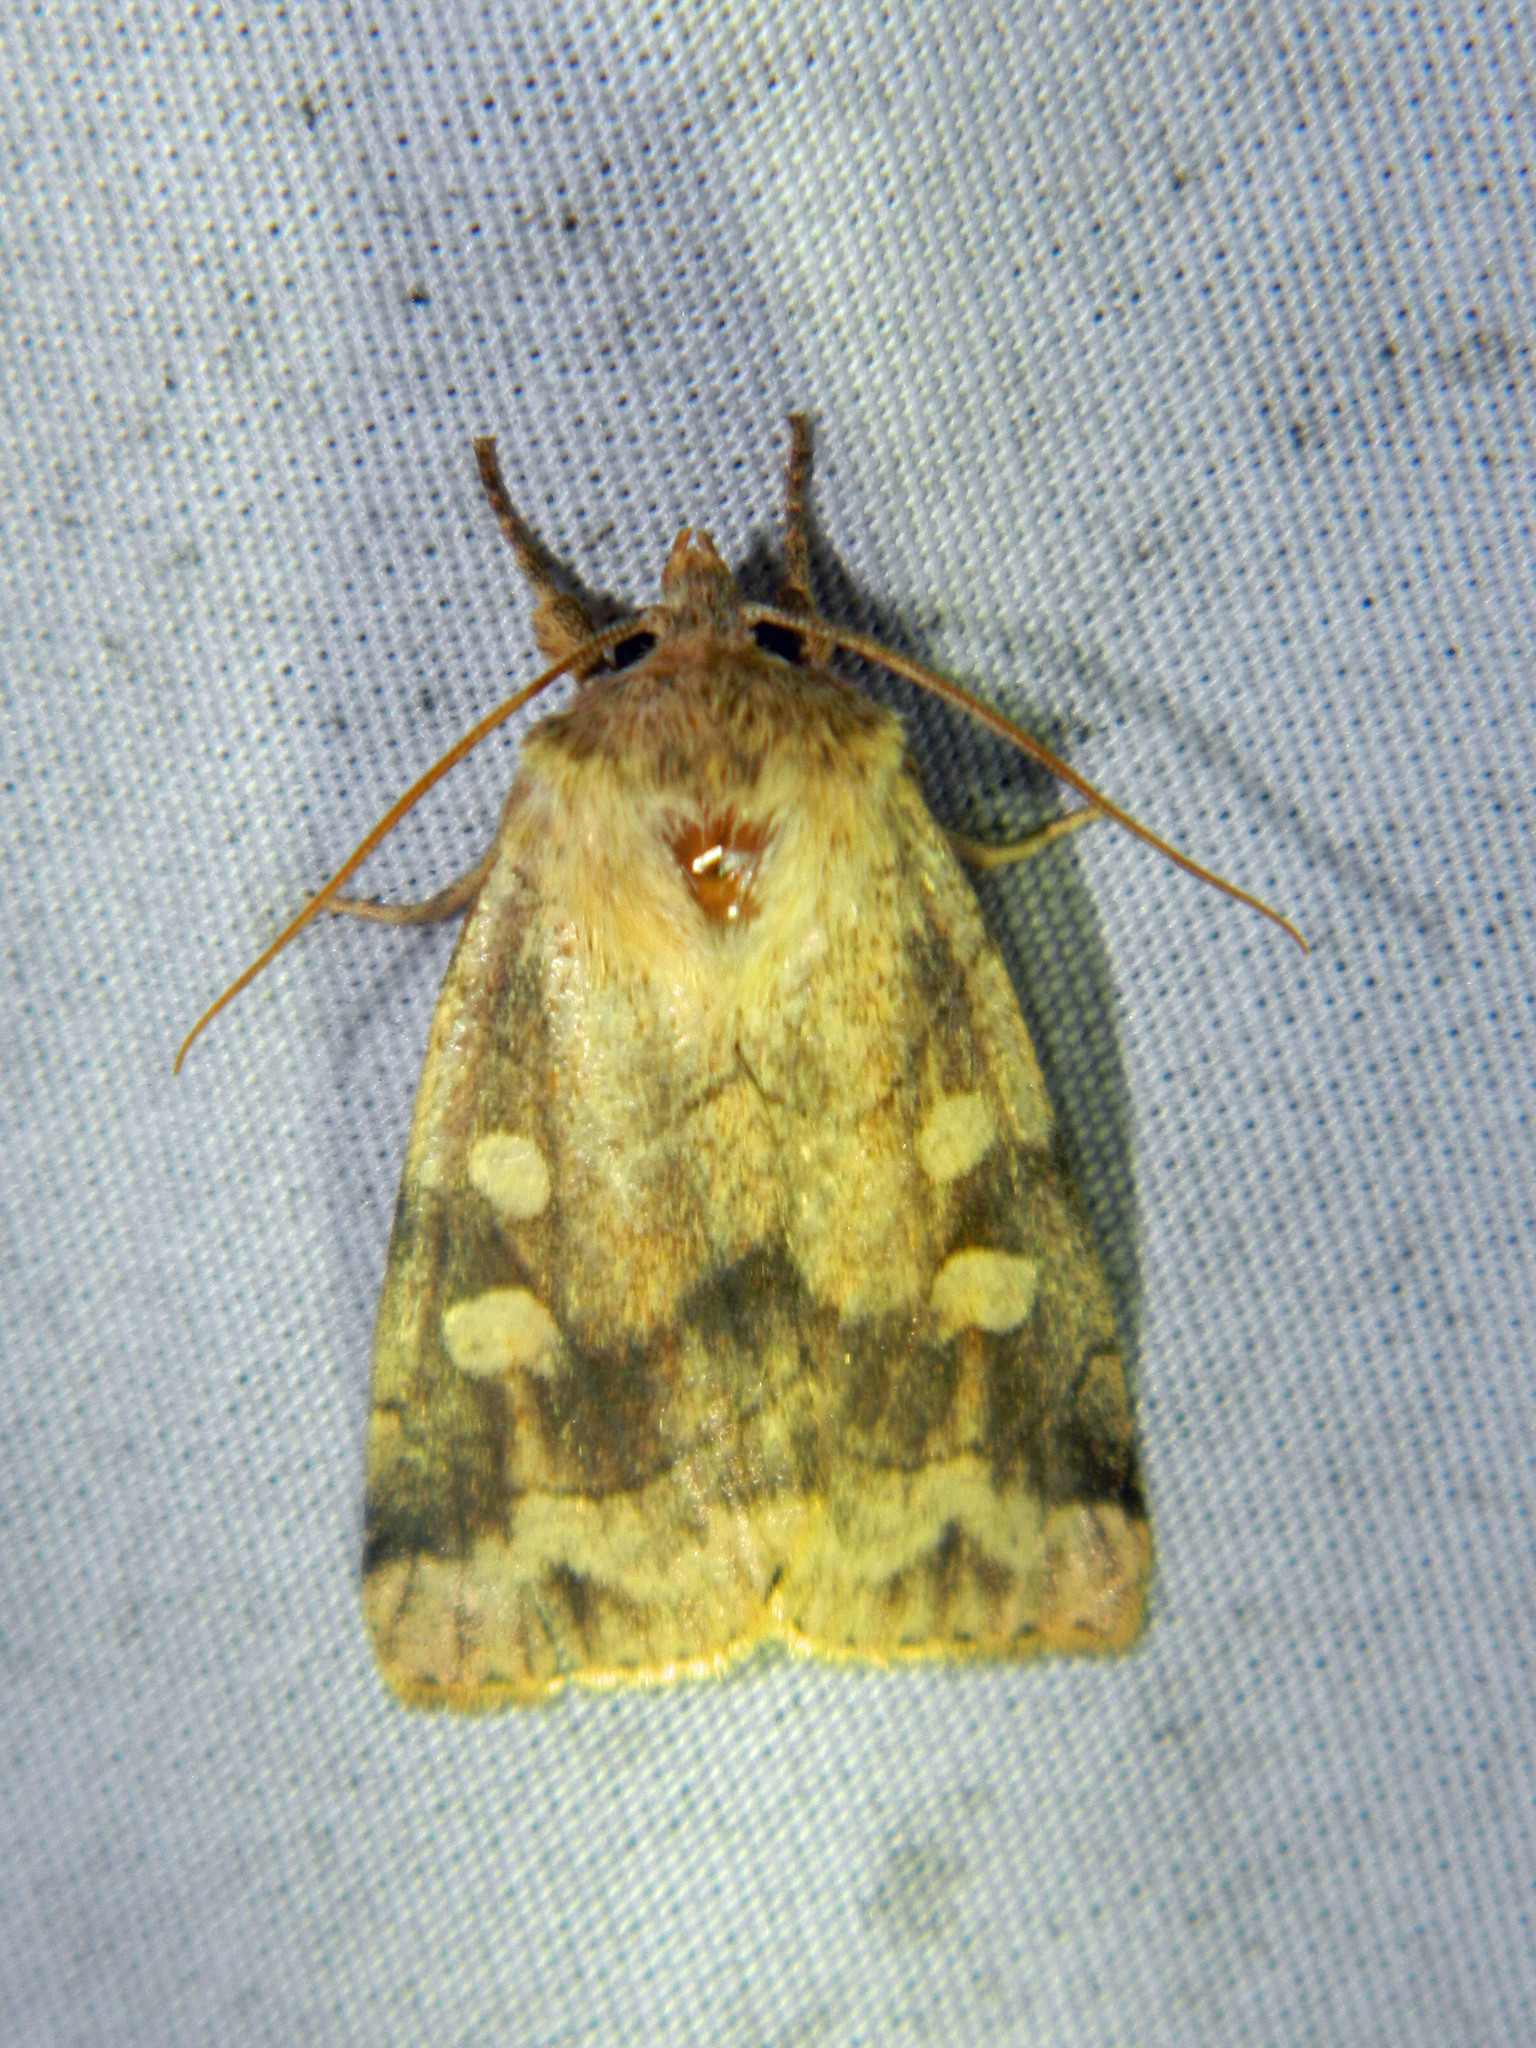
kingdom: Animalia
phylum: Arthropoda
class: Insecta
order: Lepidoptera
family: Noctuidae
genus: Enargia
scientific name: Enargia decolor
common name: Aspen twoleaf tier moth
